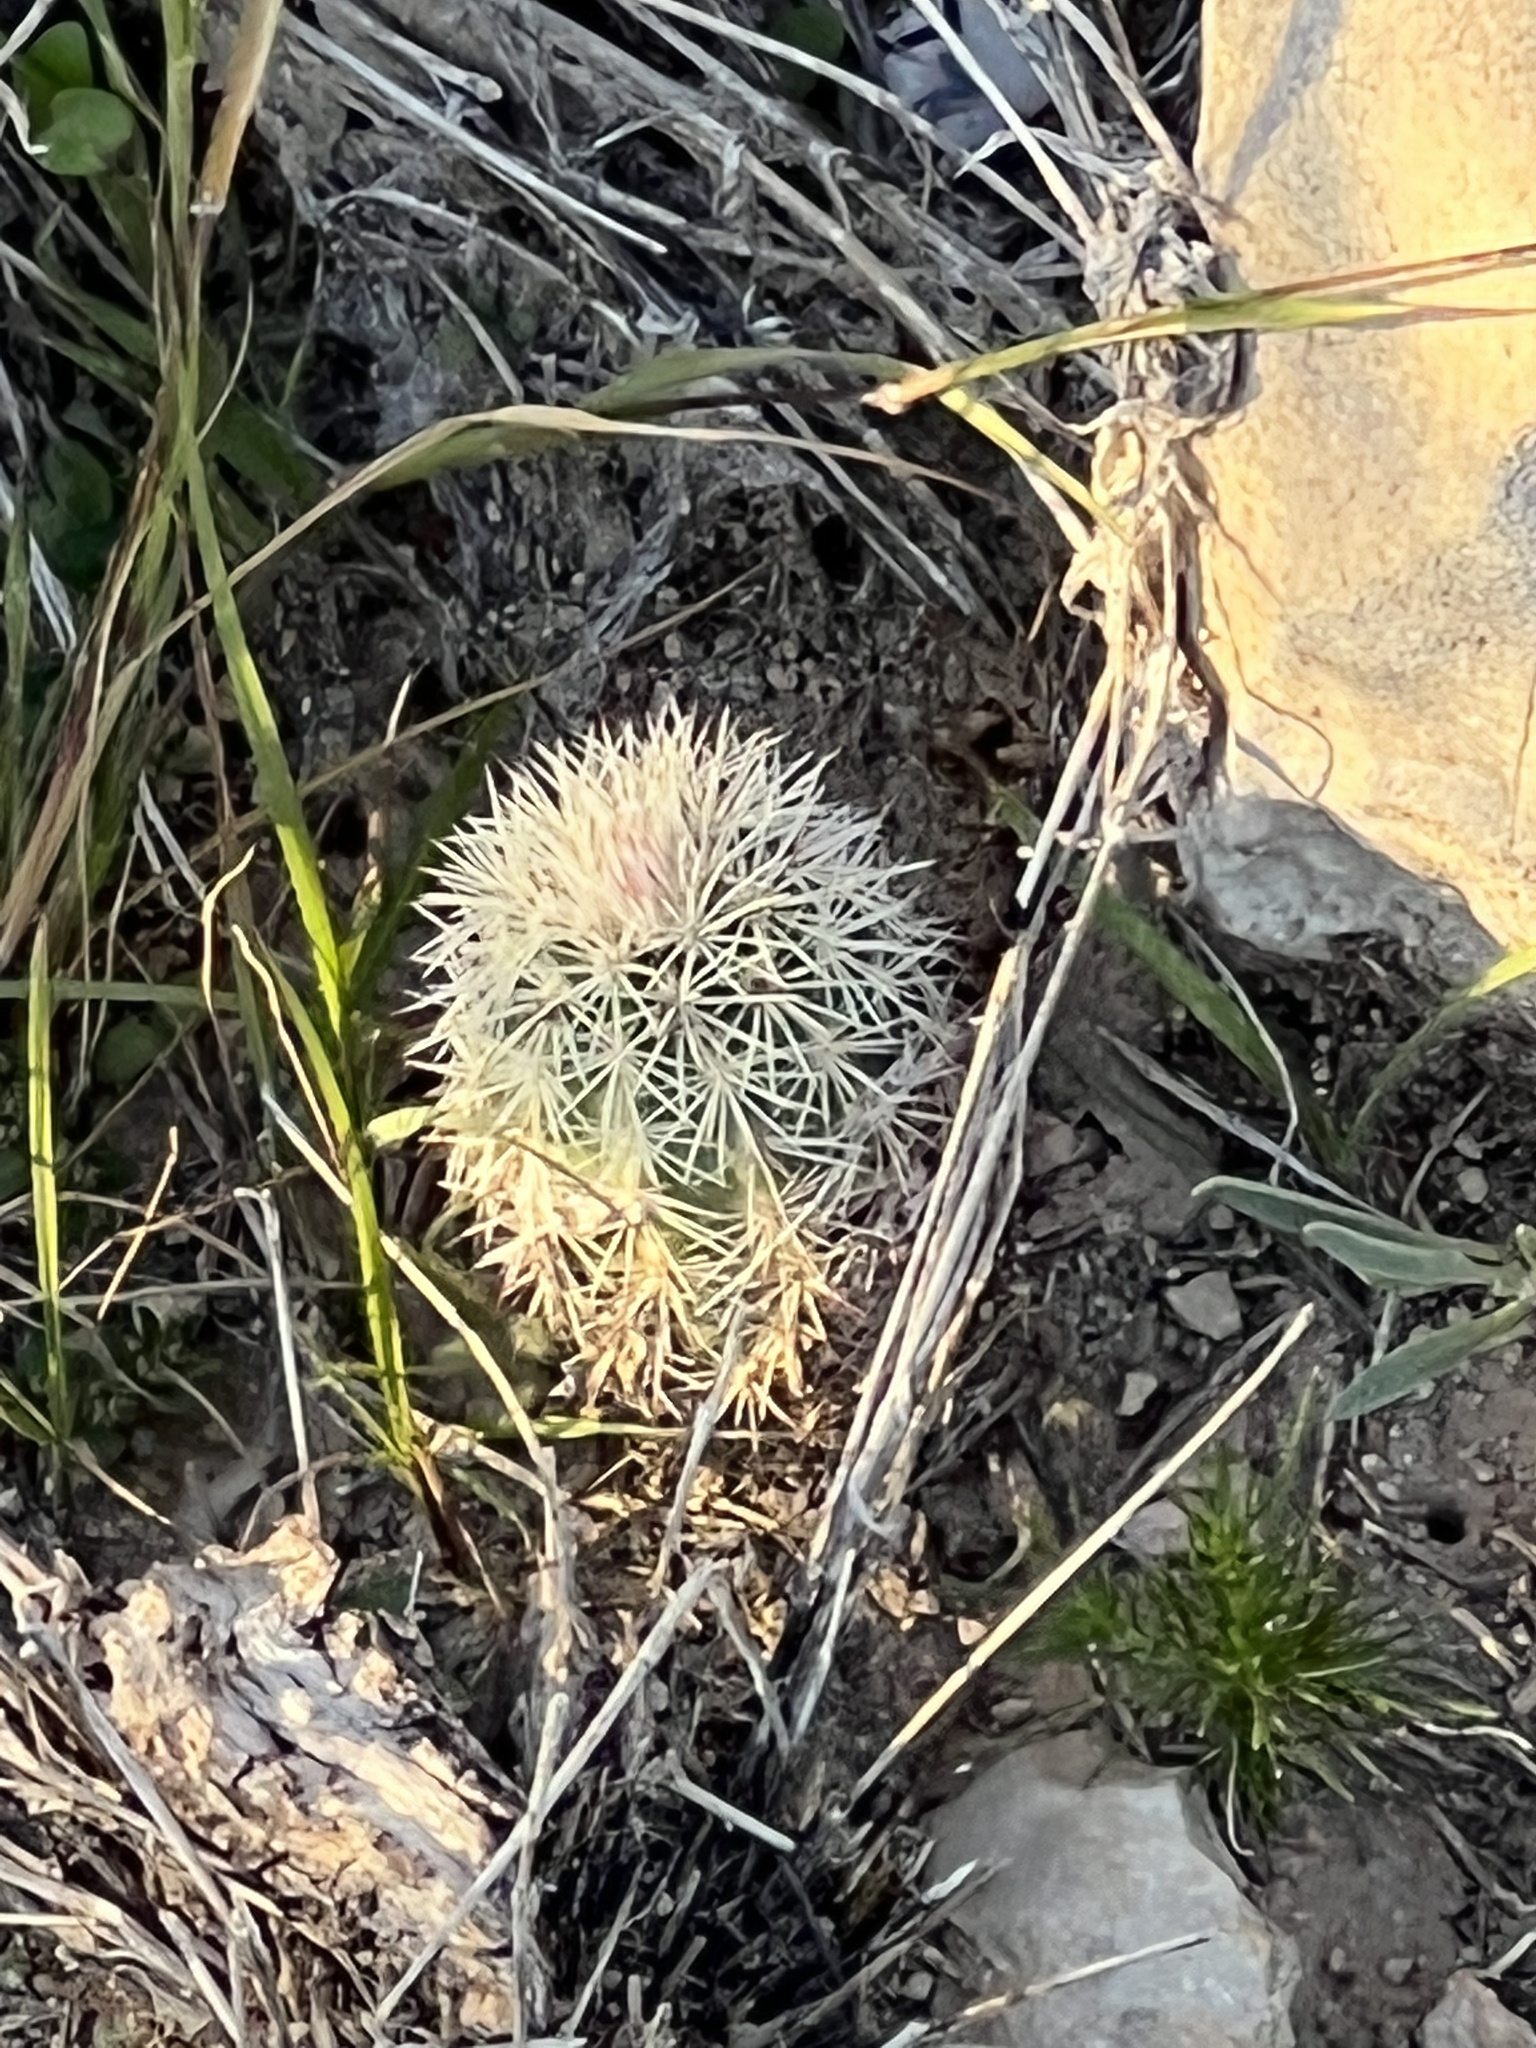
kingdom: Plantae
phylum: Tracheophyta
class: Magnoliopsida
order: Caryophyllales
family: Cactaceae
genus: Echinocereus
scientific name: Echinocereus dasyacanthus
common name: Spiny hedgehog cactus
